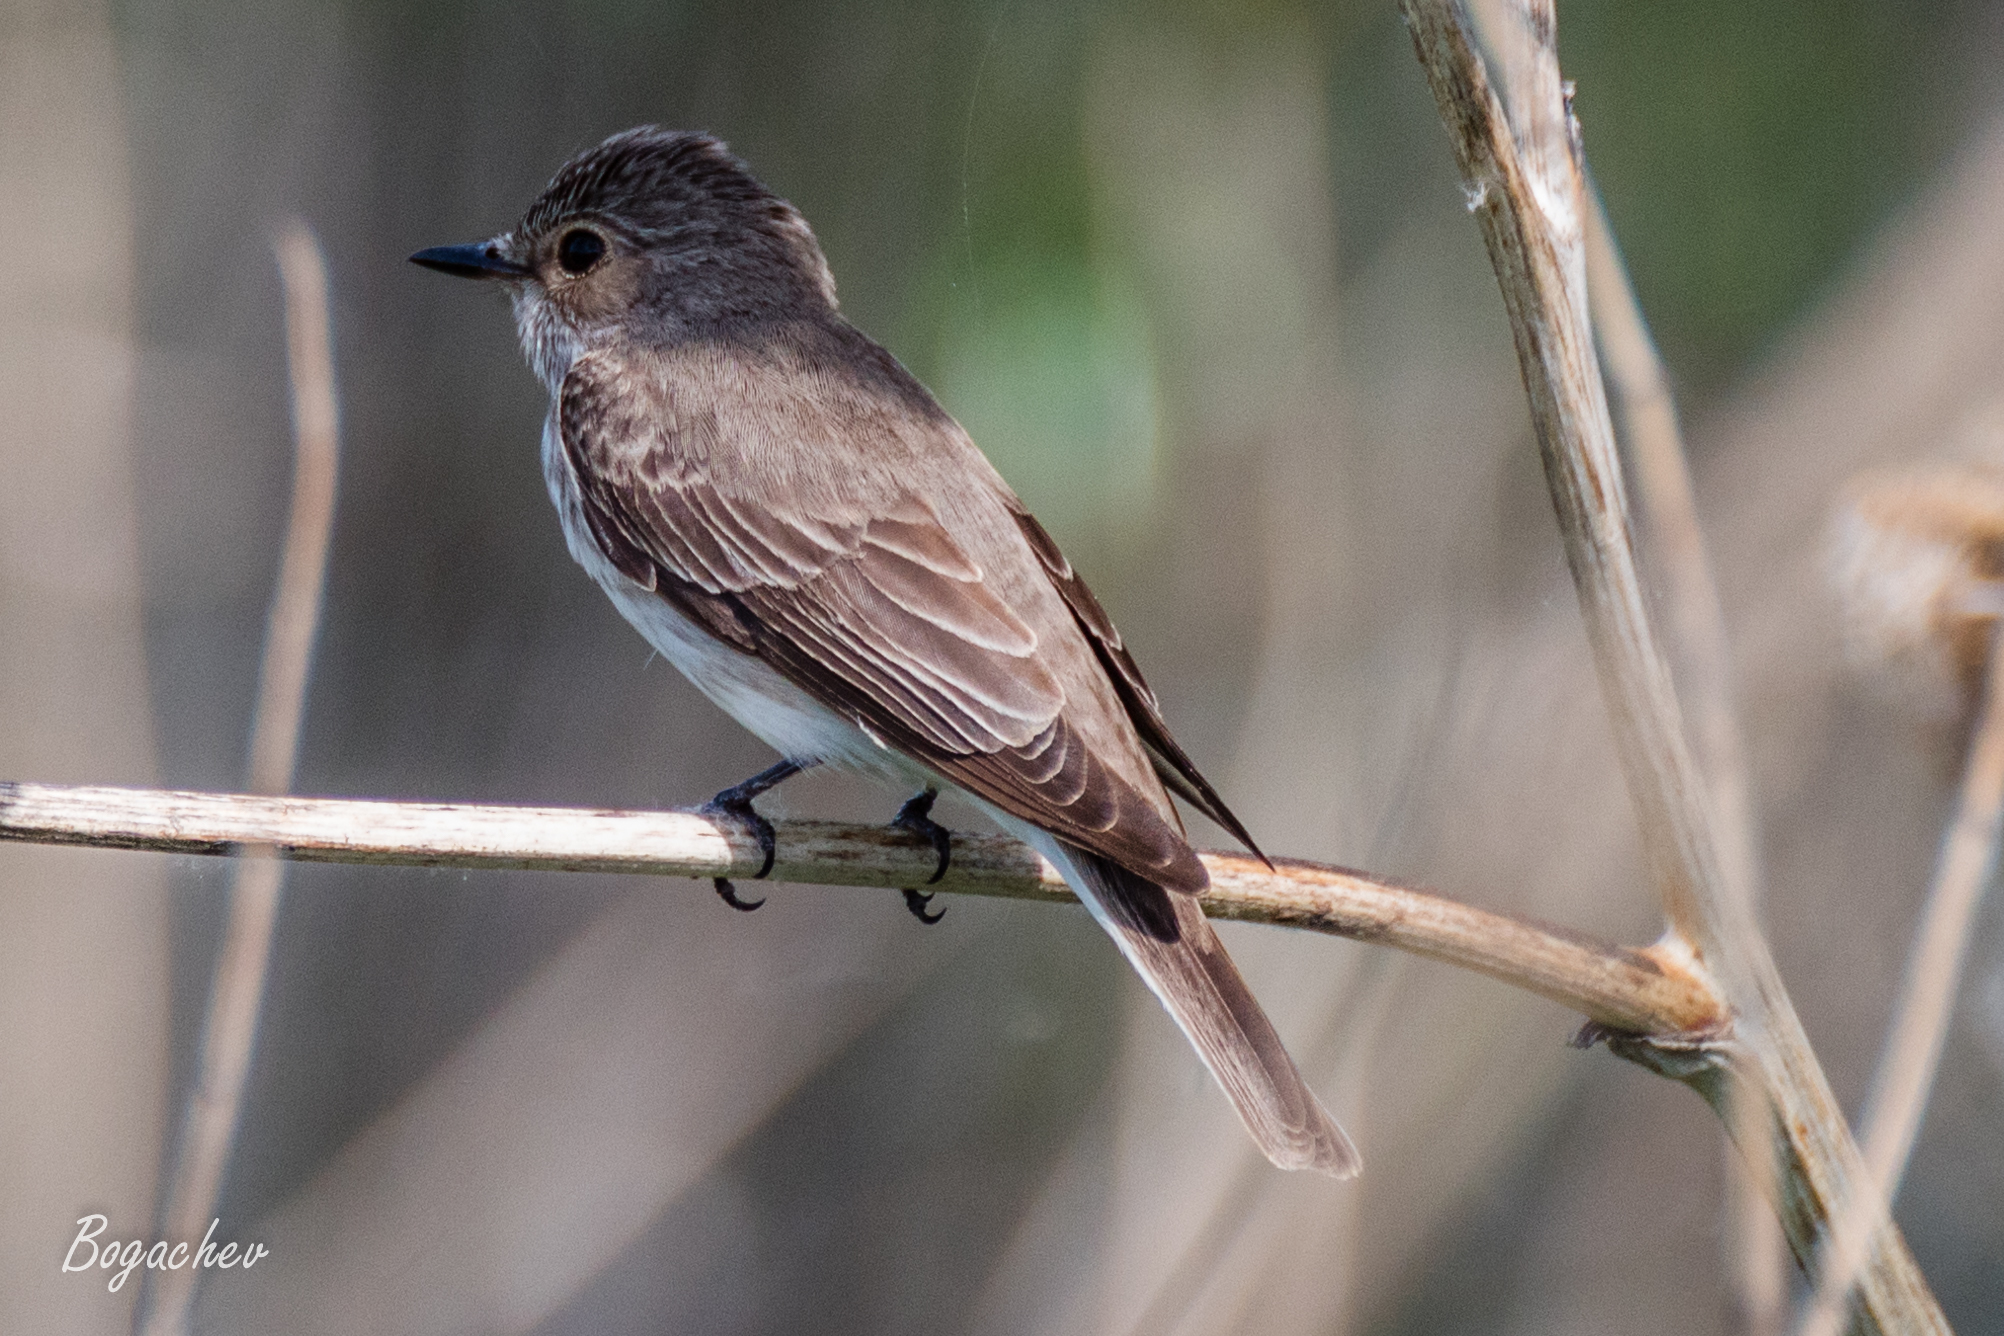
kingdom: Animalia
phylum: Chordata
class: Aves
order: Passeriformes
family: Muscicapidae
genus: Muscicapa
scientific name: Muscicapa striata
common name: Spotted flycatcher
